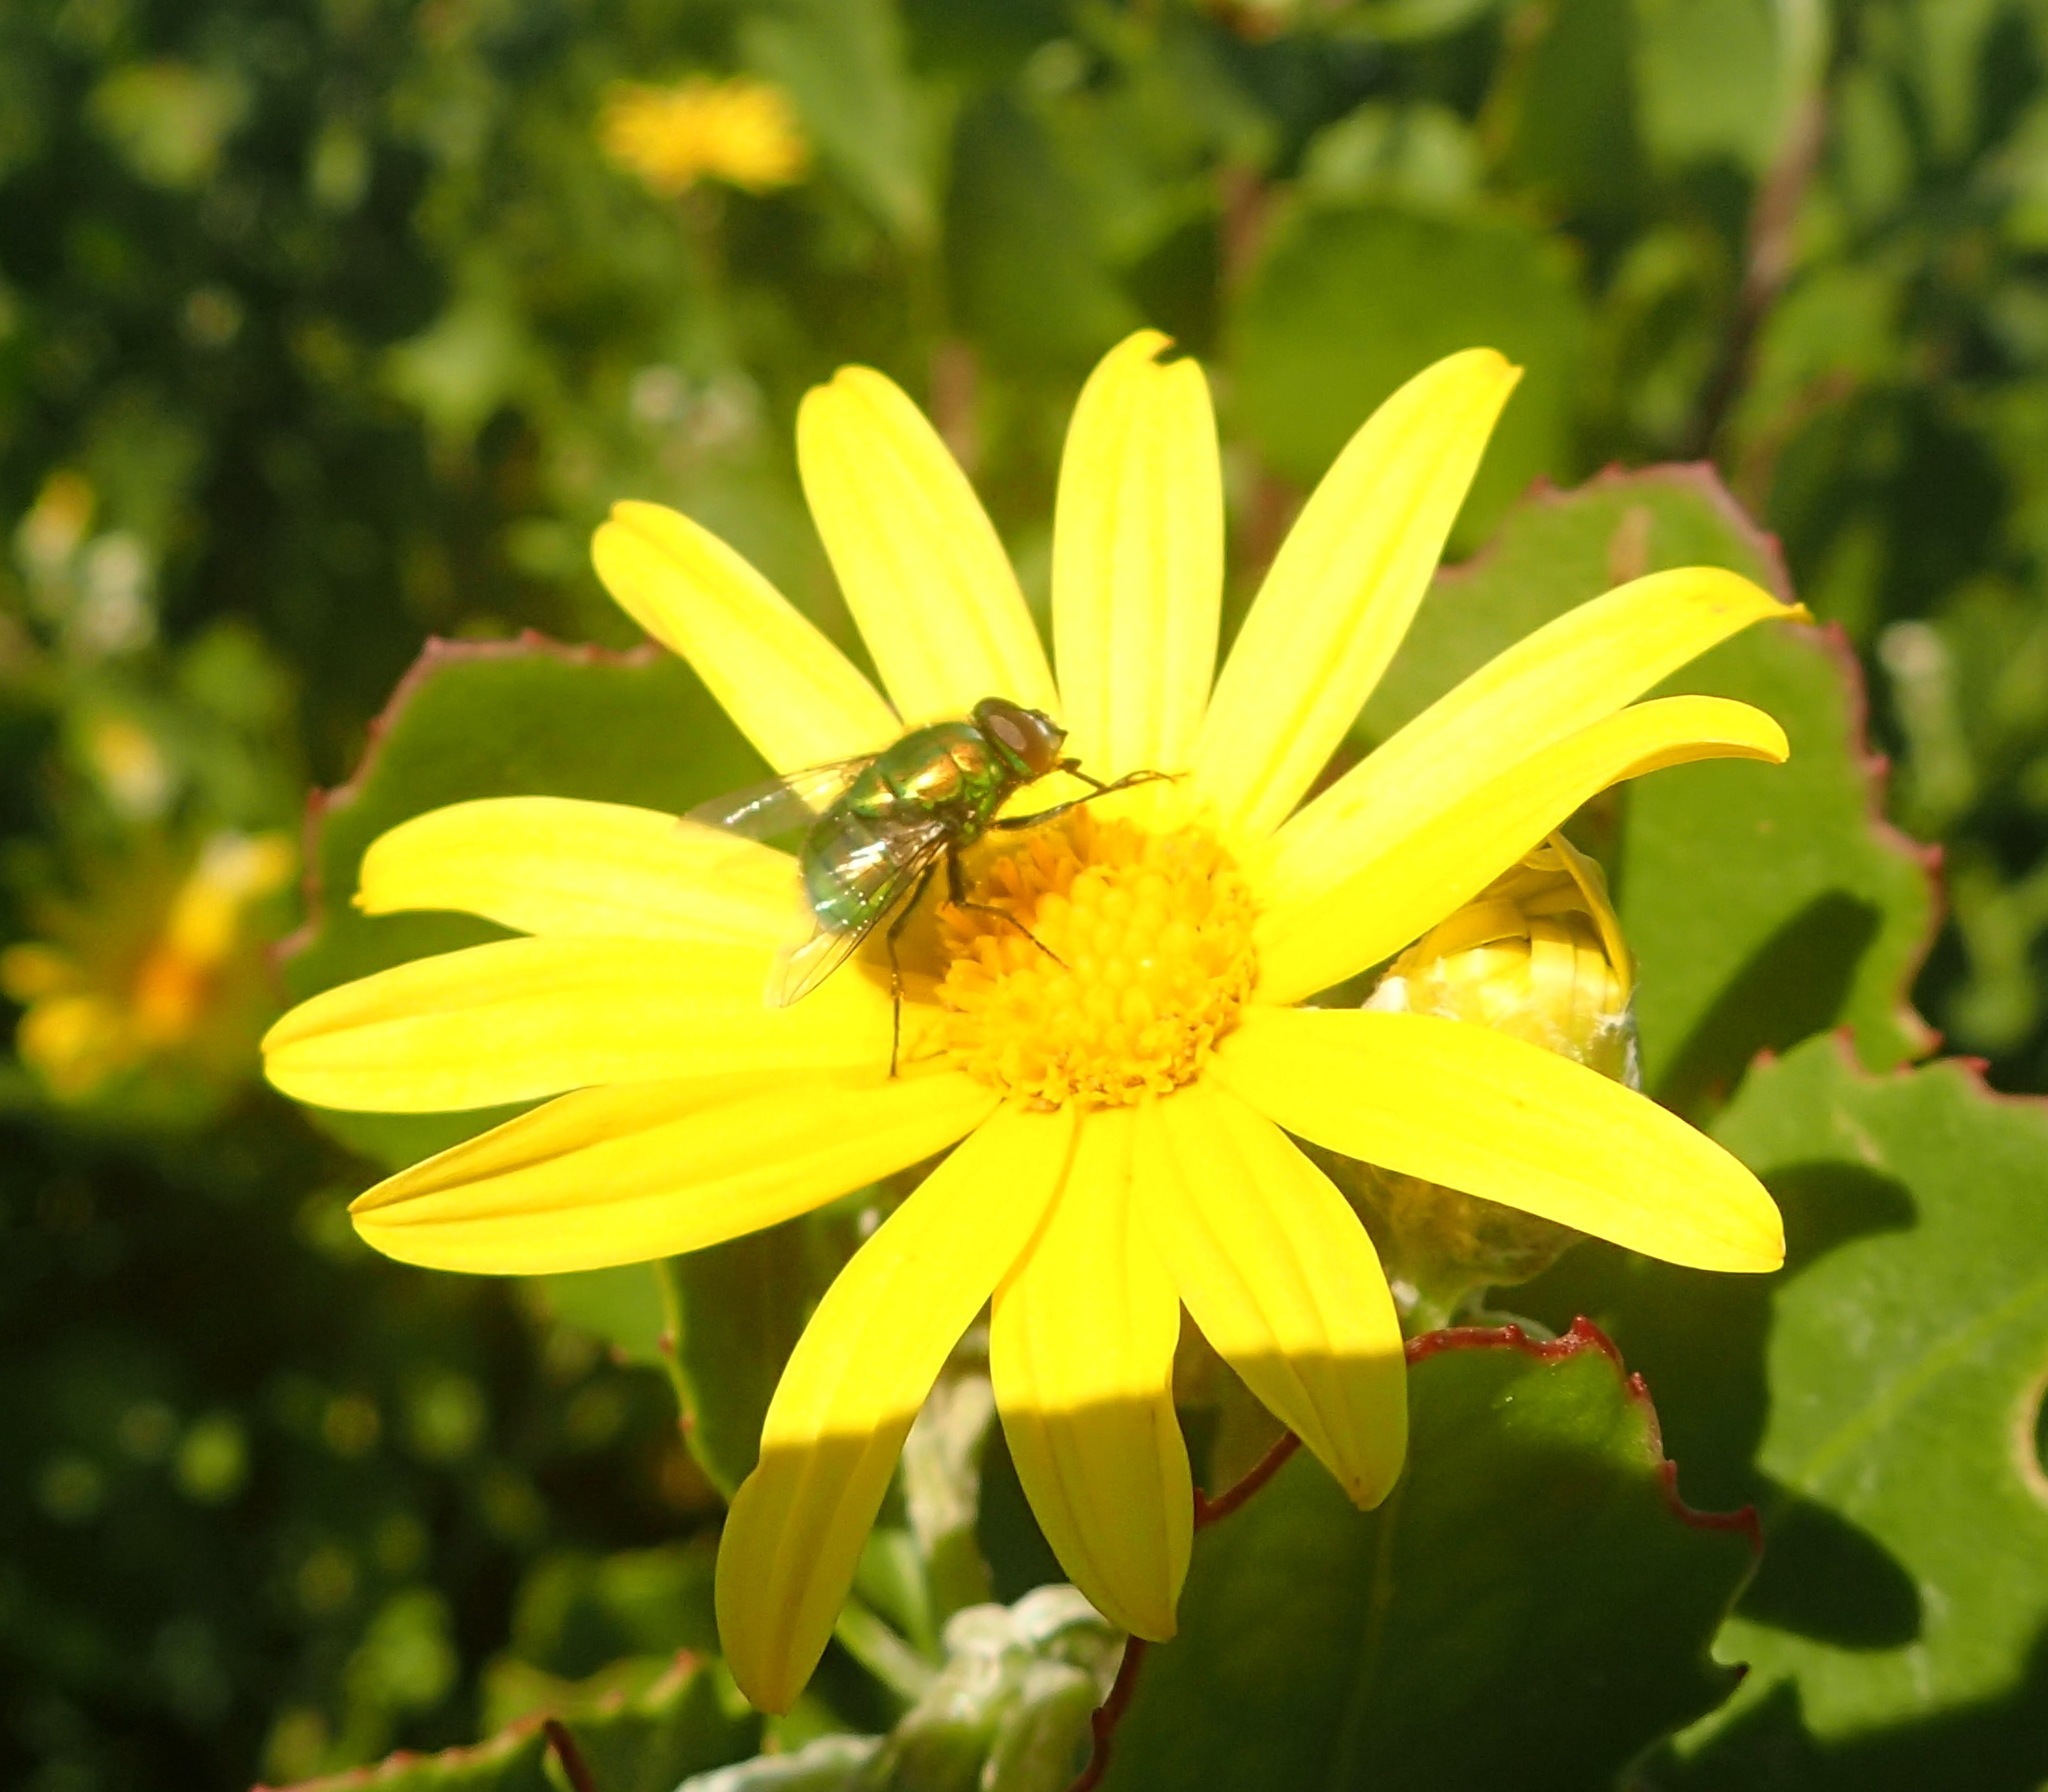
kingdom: Plantae
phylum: Tracheophyta
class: Magnoliopsida
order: Asterales
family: Asteraceae
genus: Osteospermum
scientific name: Osteospermum moniliferum
